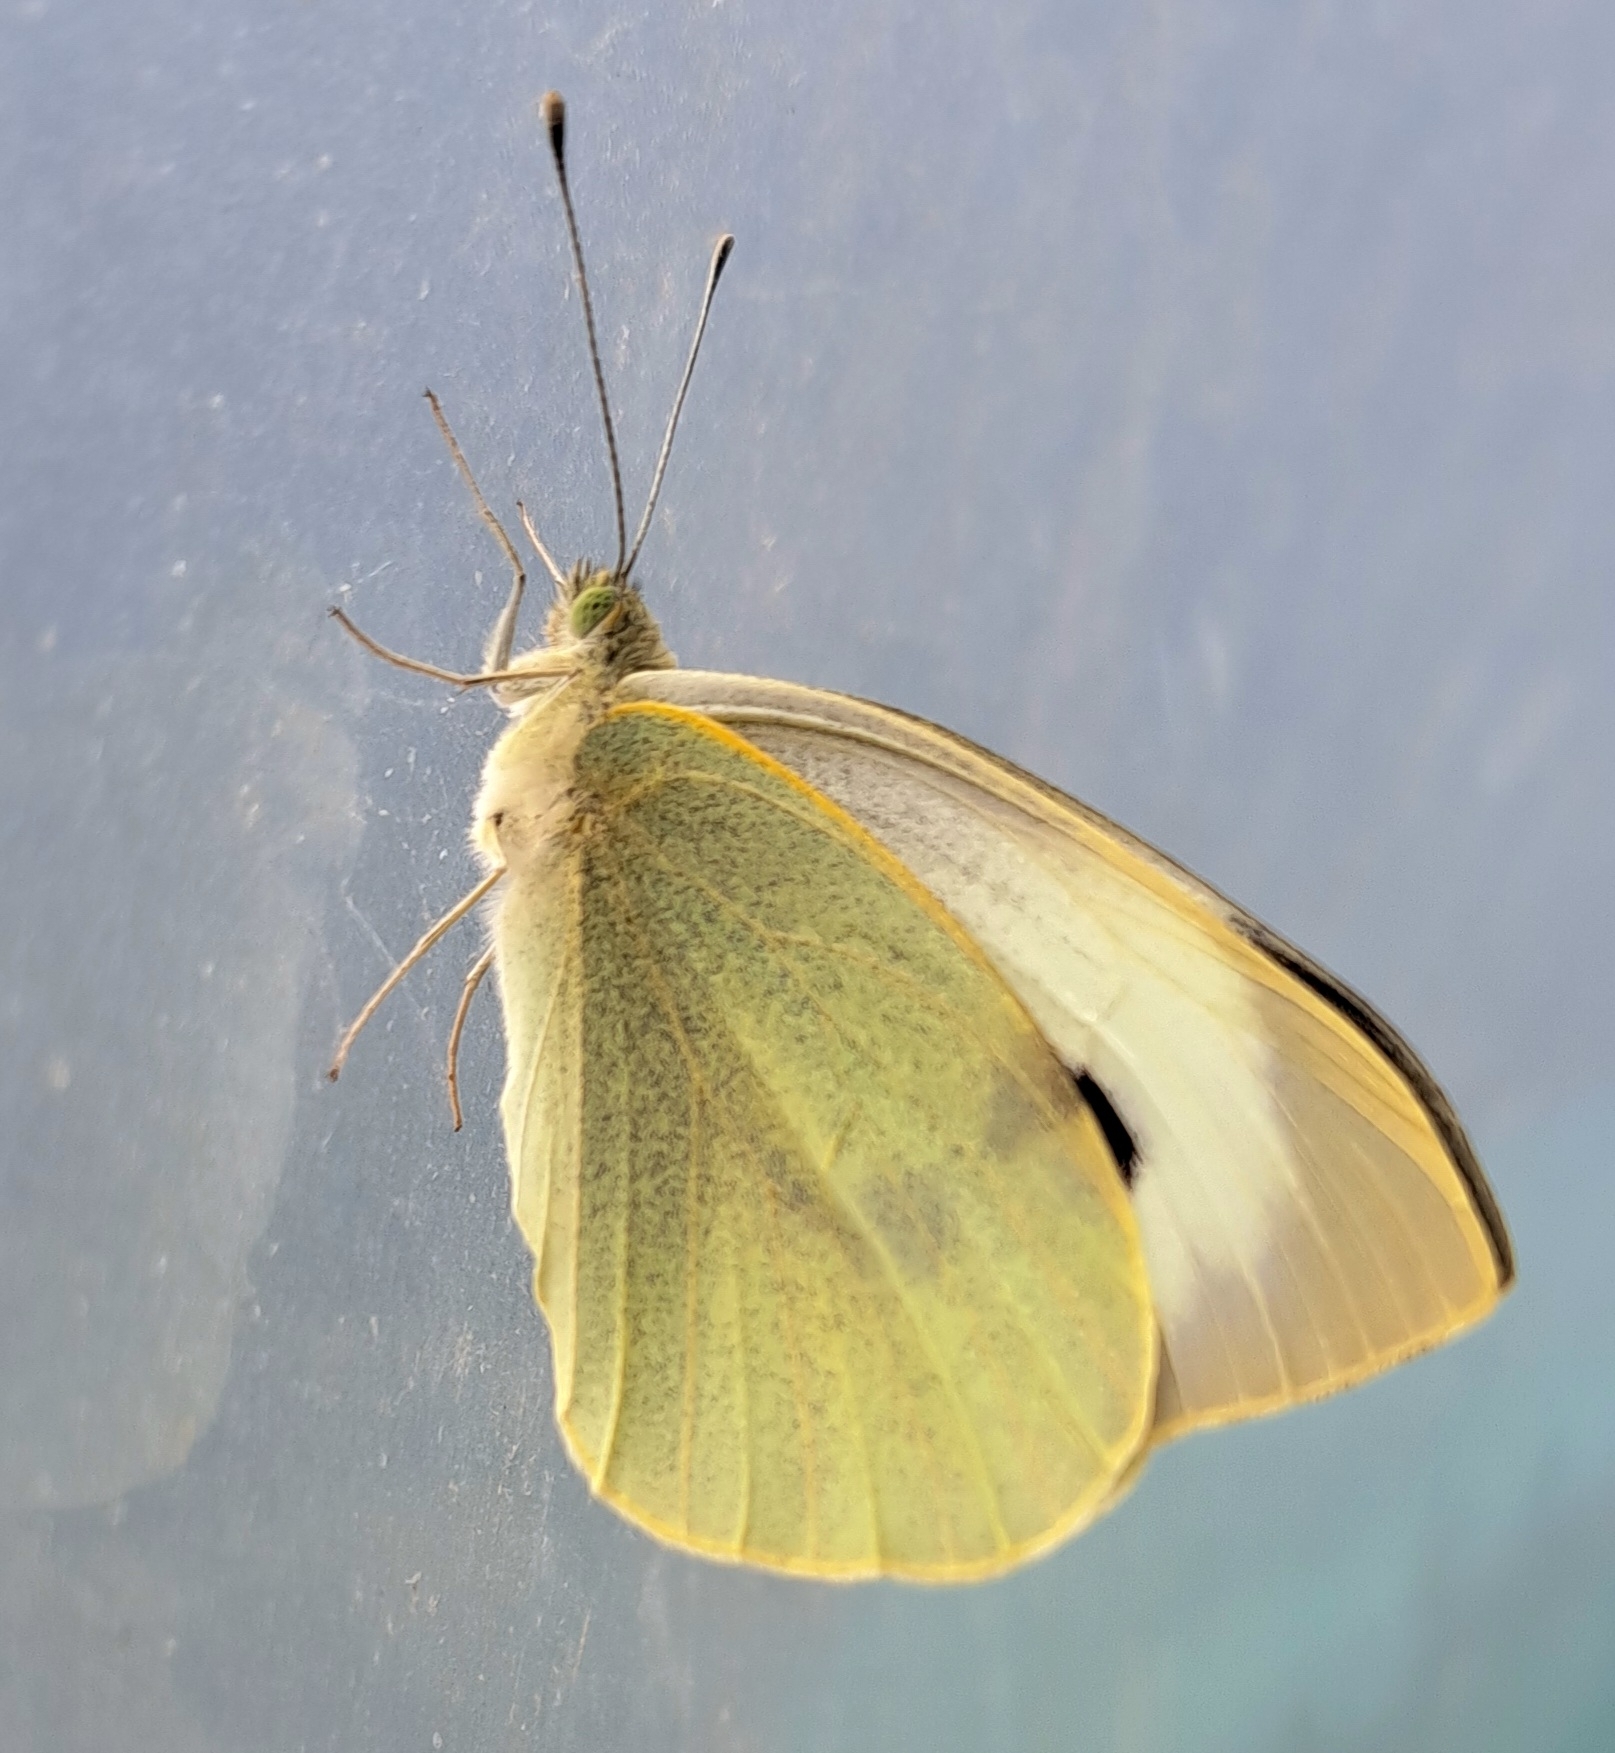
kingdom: Animalia
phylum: Arthropoda
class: Insecta
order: Lepidoptera
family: Pieridae
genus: Pieris
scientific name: Pieris brassicae
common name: Large white
